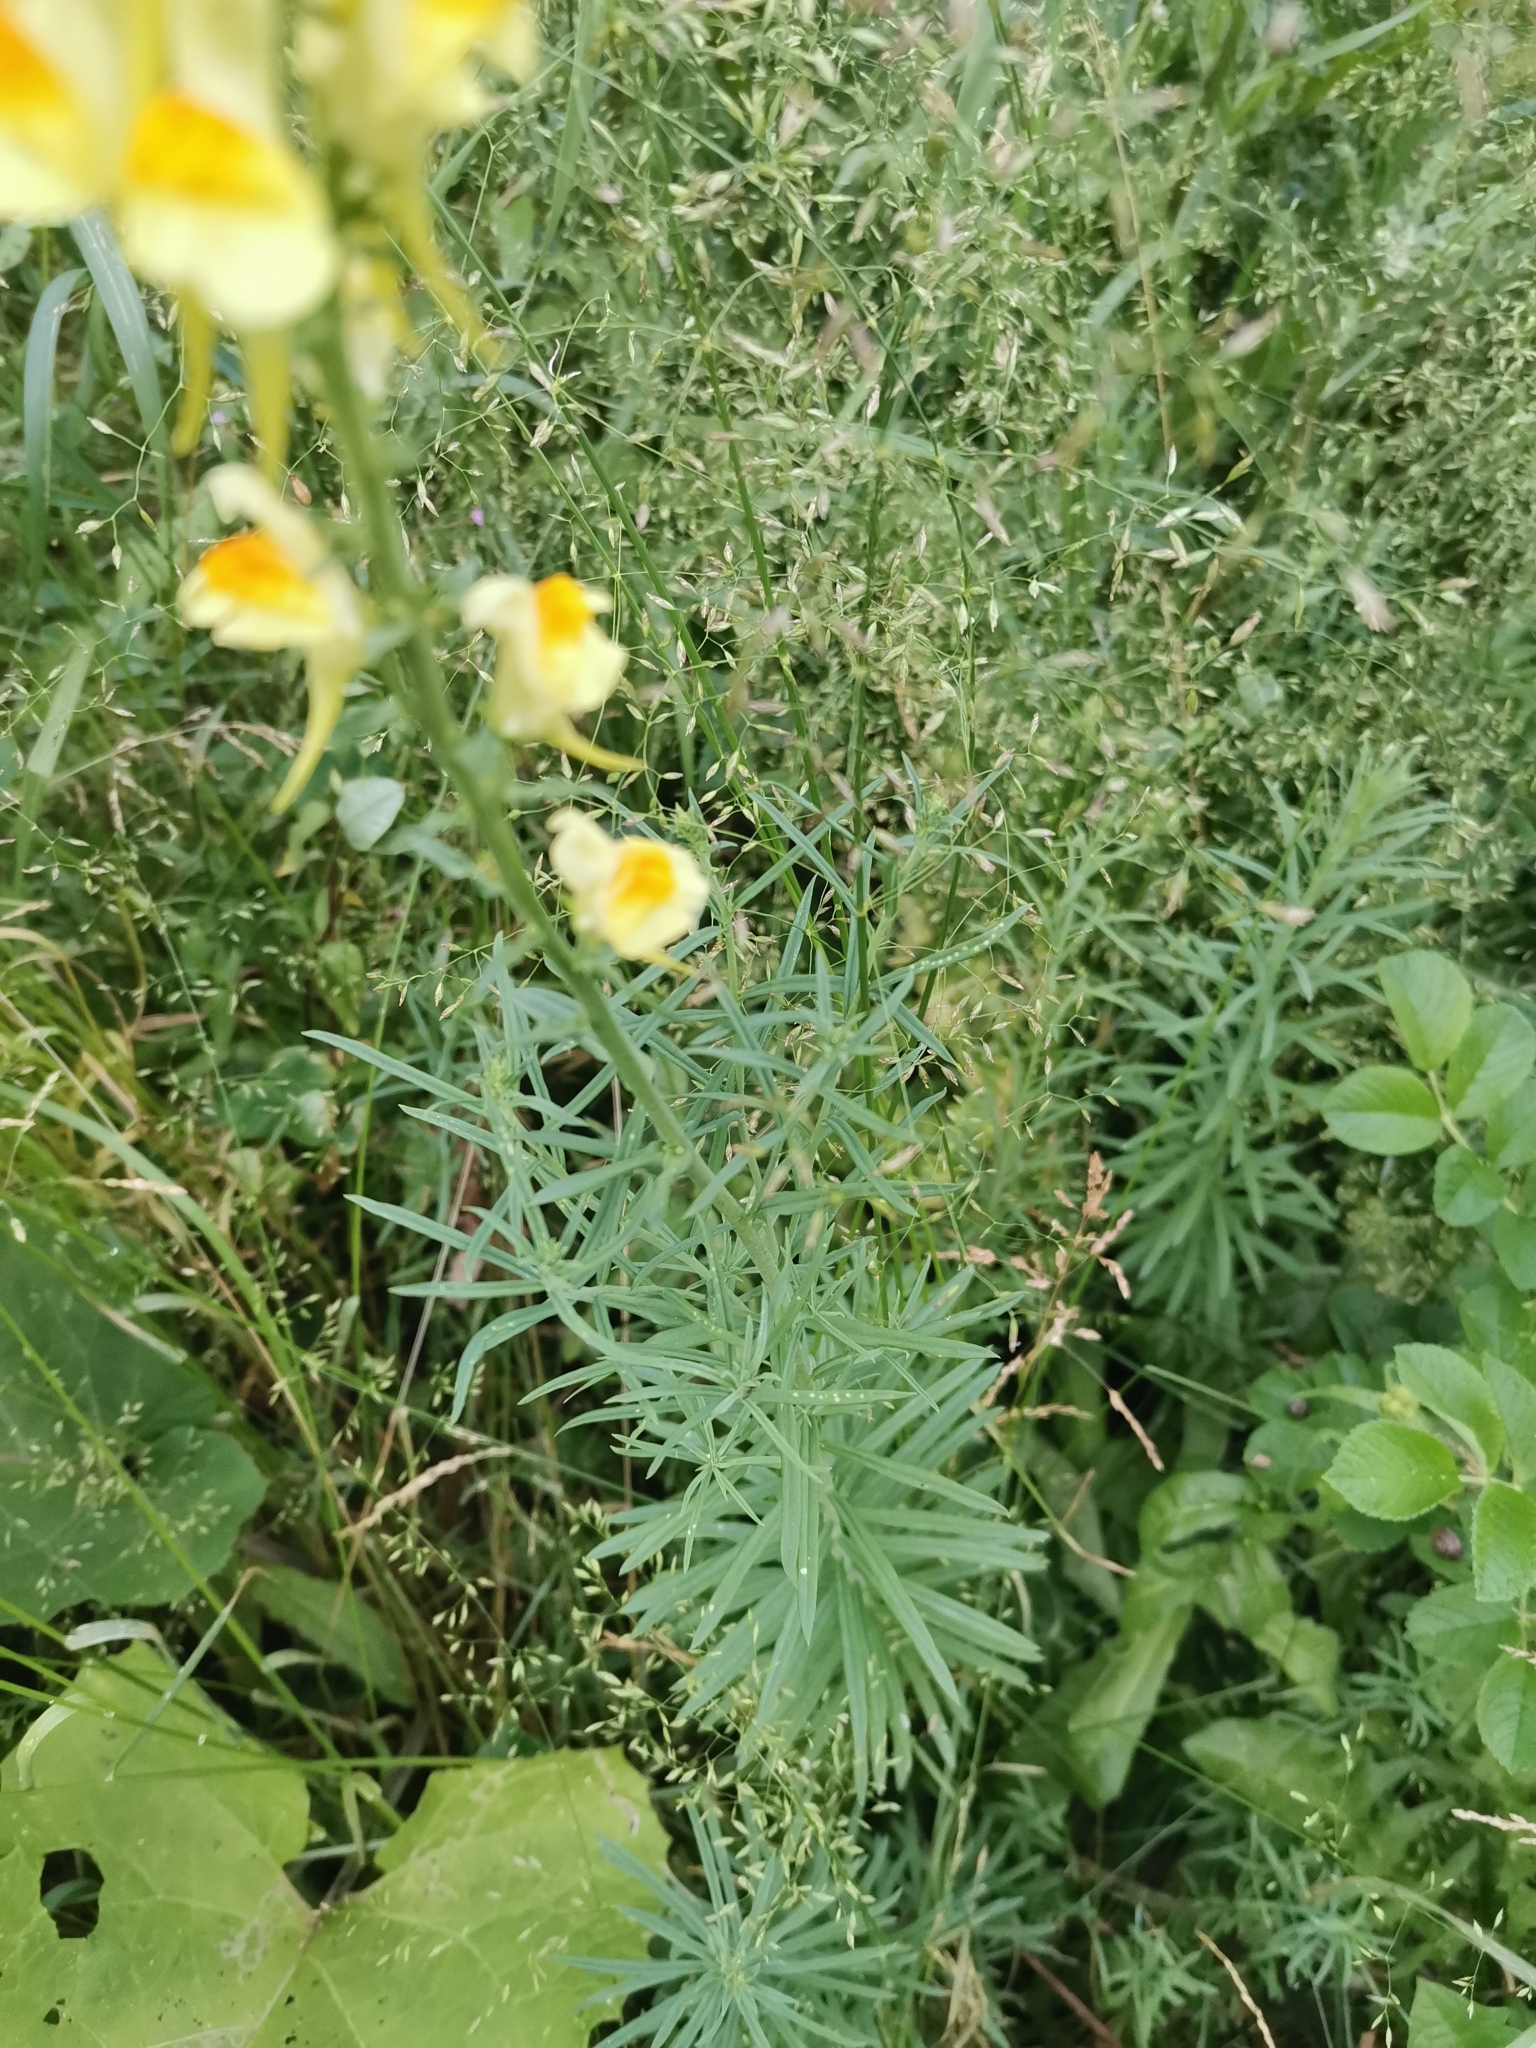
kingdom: Plantae
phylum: Tracheophyta
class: Magnoliopsida
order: Lamiales
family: Plantaginaceae
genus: Linaria
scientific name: Linaria vulgaris
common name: Butter and eggs
